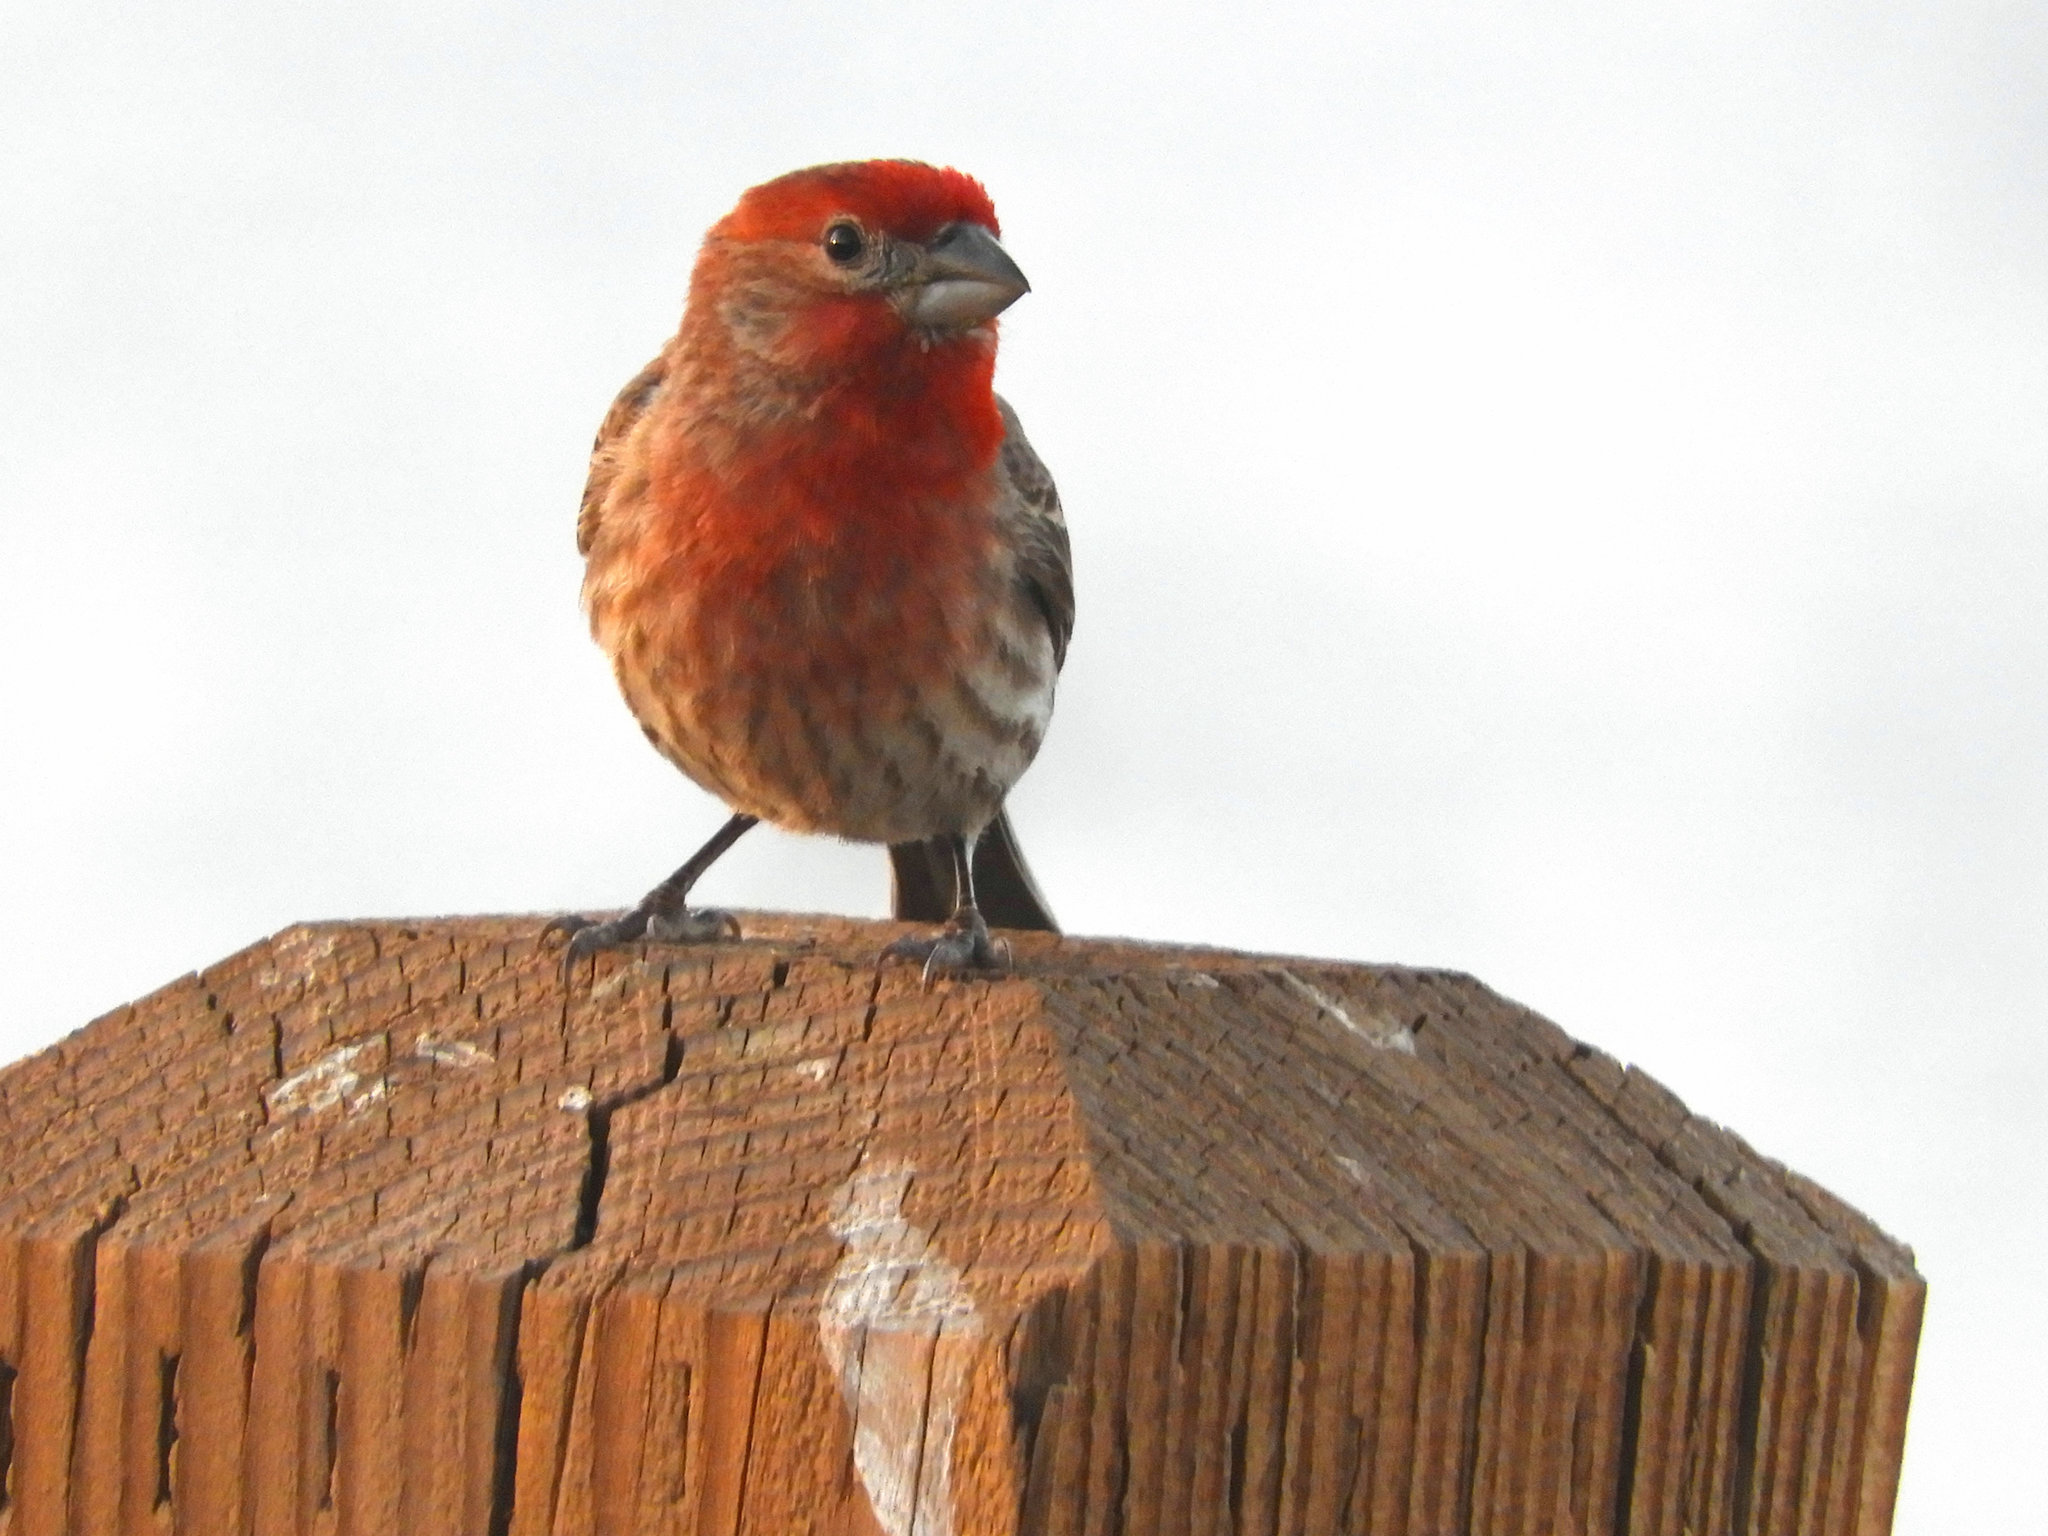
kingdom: Animalia
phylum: Chordata
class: Aves
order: Passeriformes
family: Fringillidae
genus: Haemorhous
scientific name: Haemorhous mexicanus
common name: House finch
